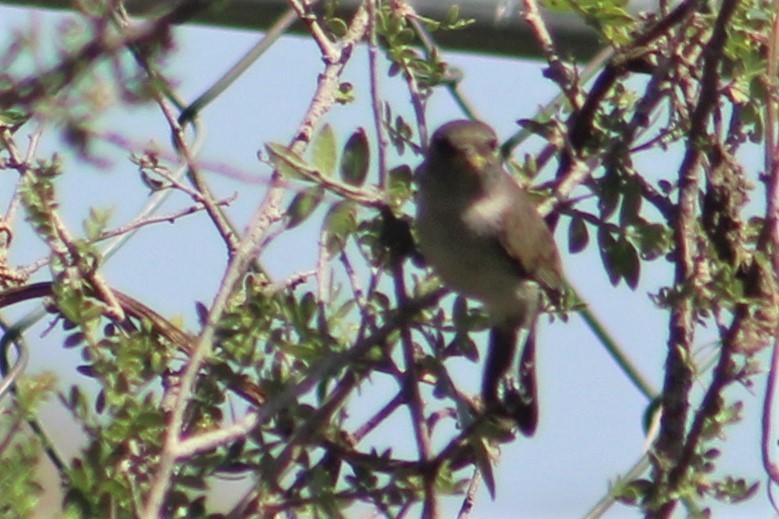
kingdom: Animalia
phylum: Chordata
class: Aves
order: Passeriformes
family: Remizidae
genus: Auriparus
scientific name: Auriparus flaviceps
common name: Verdin
